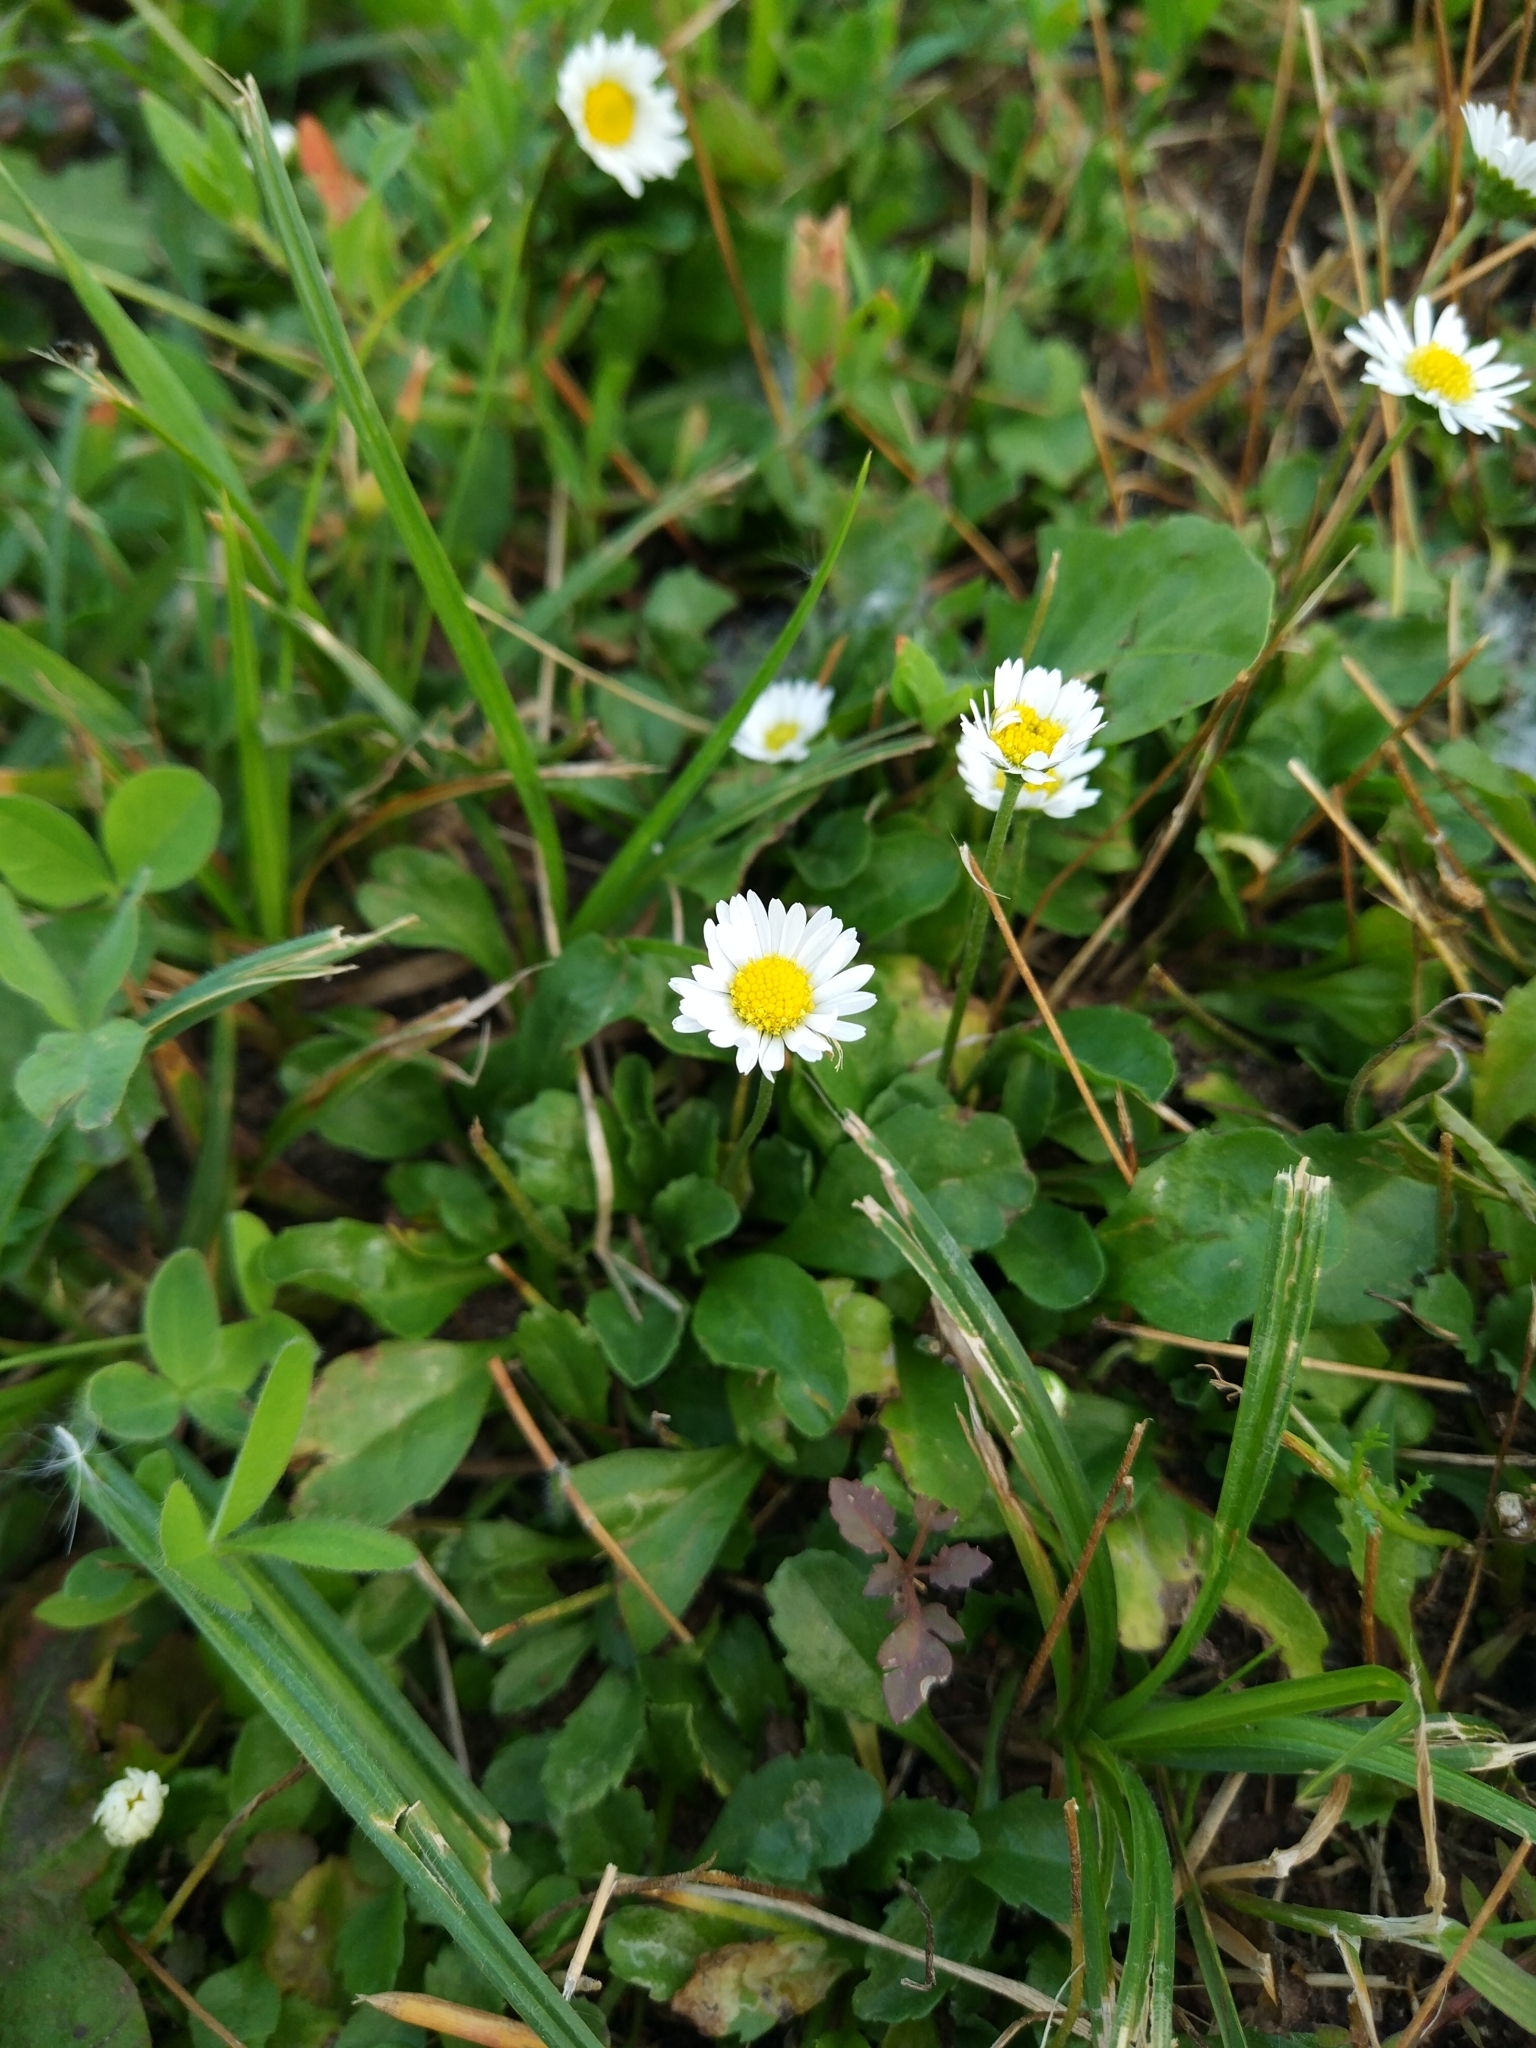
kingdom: Plantae
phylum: Tracheophyta
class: Magnoliopsida
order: Asterales
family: Asteraceae
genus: Bellis
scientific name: Bellis perennis
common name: Lawndaisy
